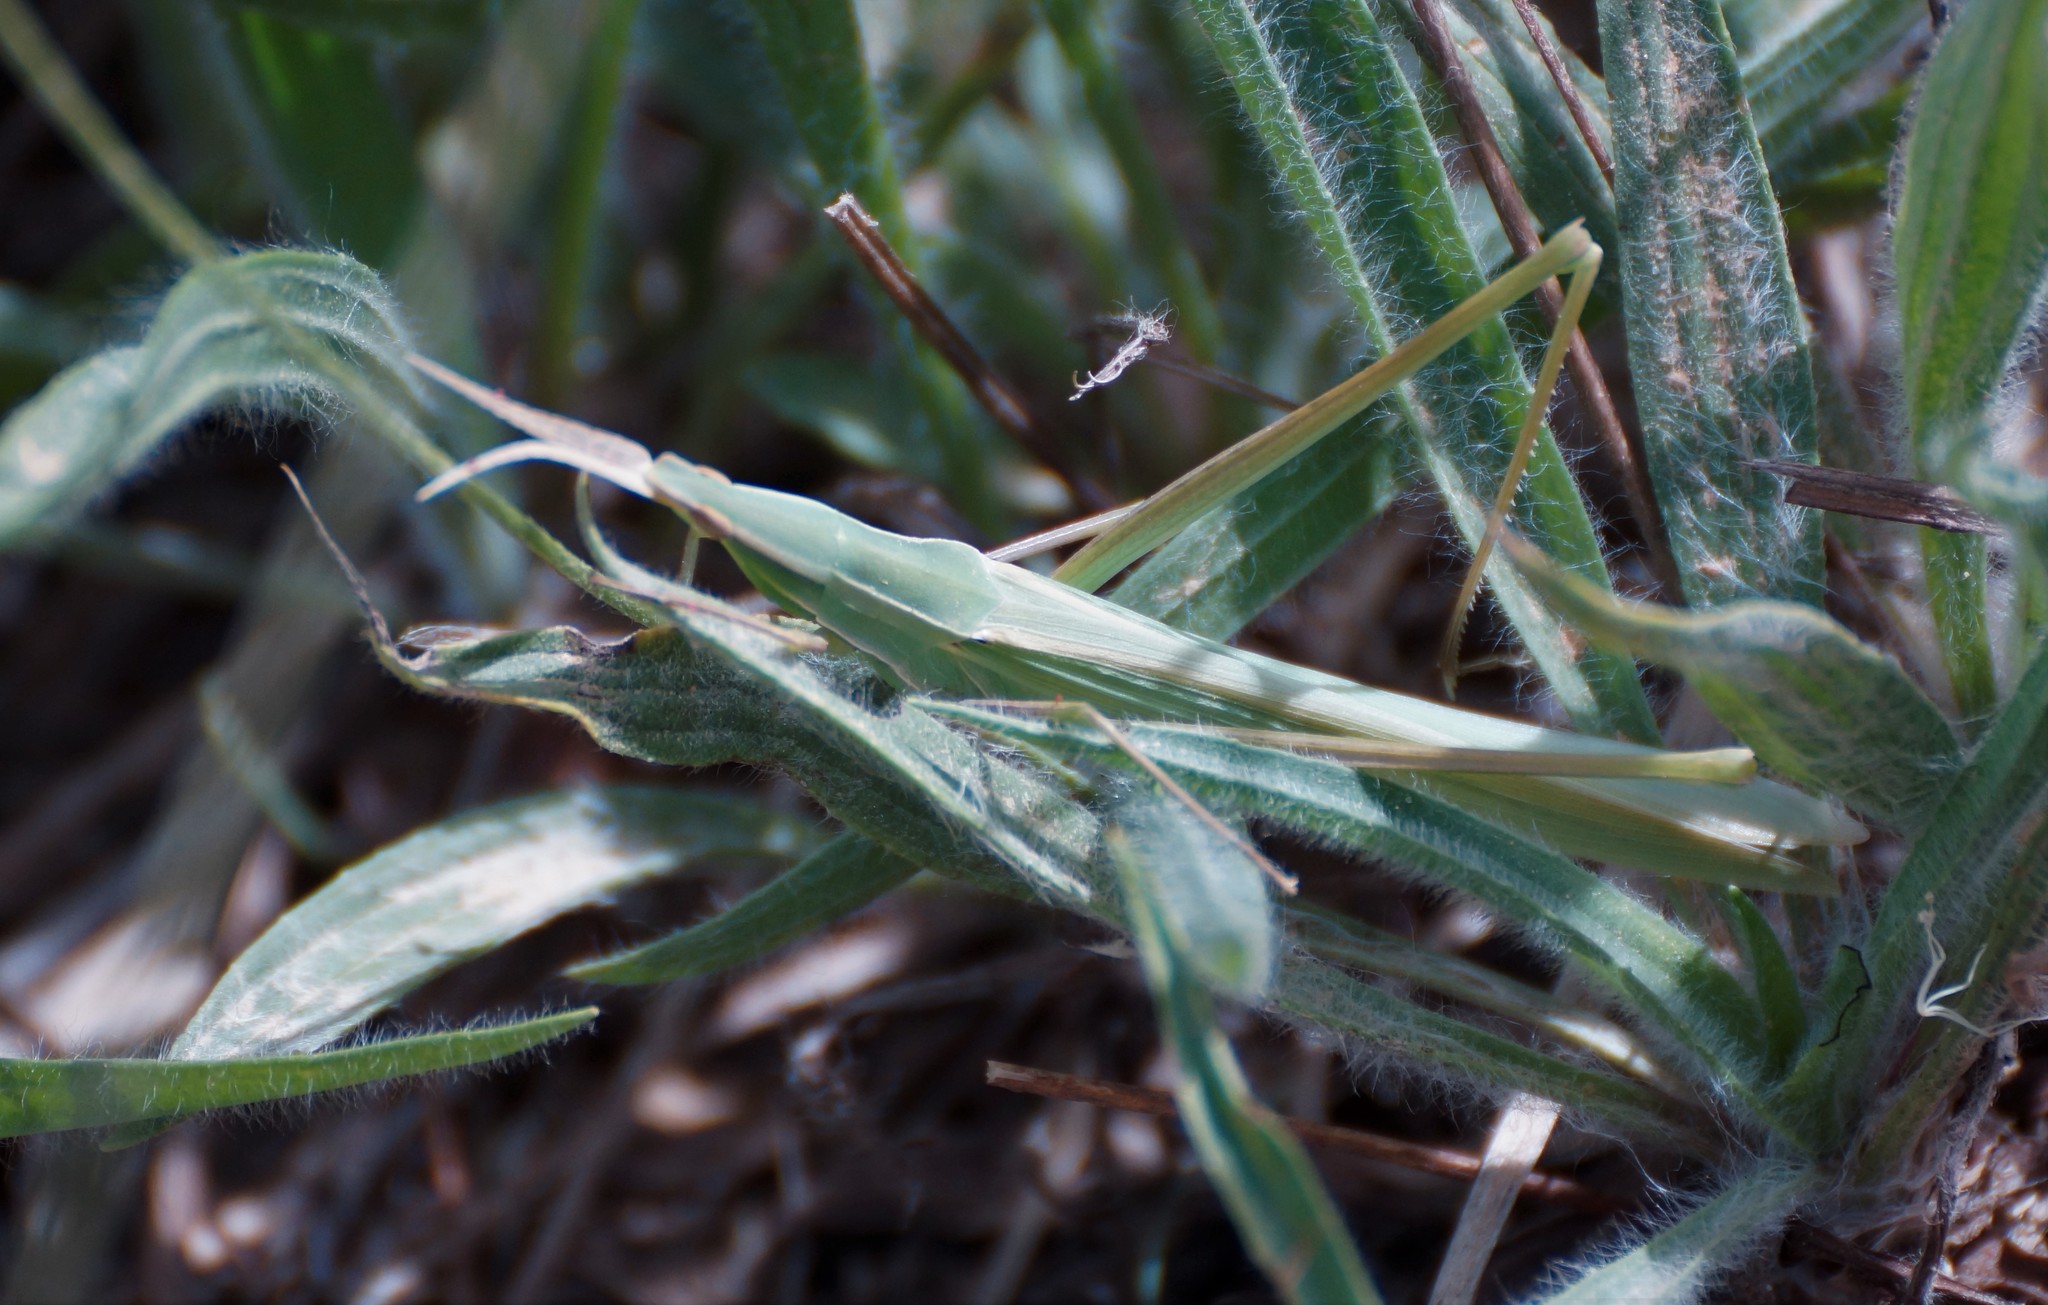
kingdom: Animalia
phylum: Arthropoda
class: Insecta
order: Orthoptera
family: Acrididae
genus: Acrida
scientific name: Acrida conica
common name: Giant green slantface
